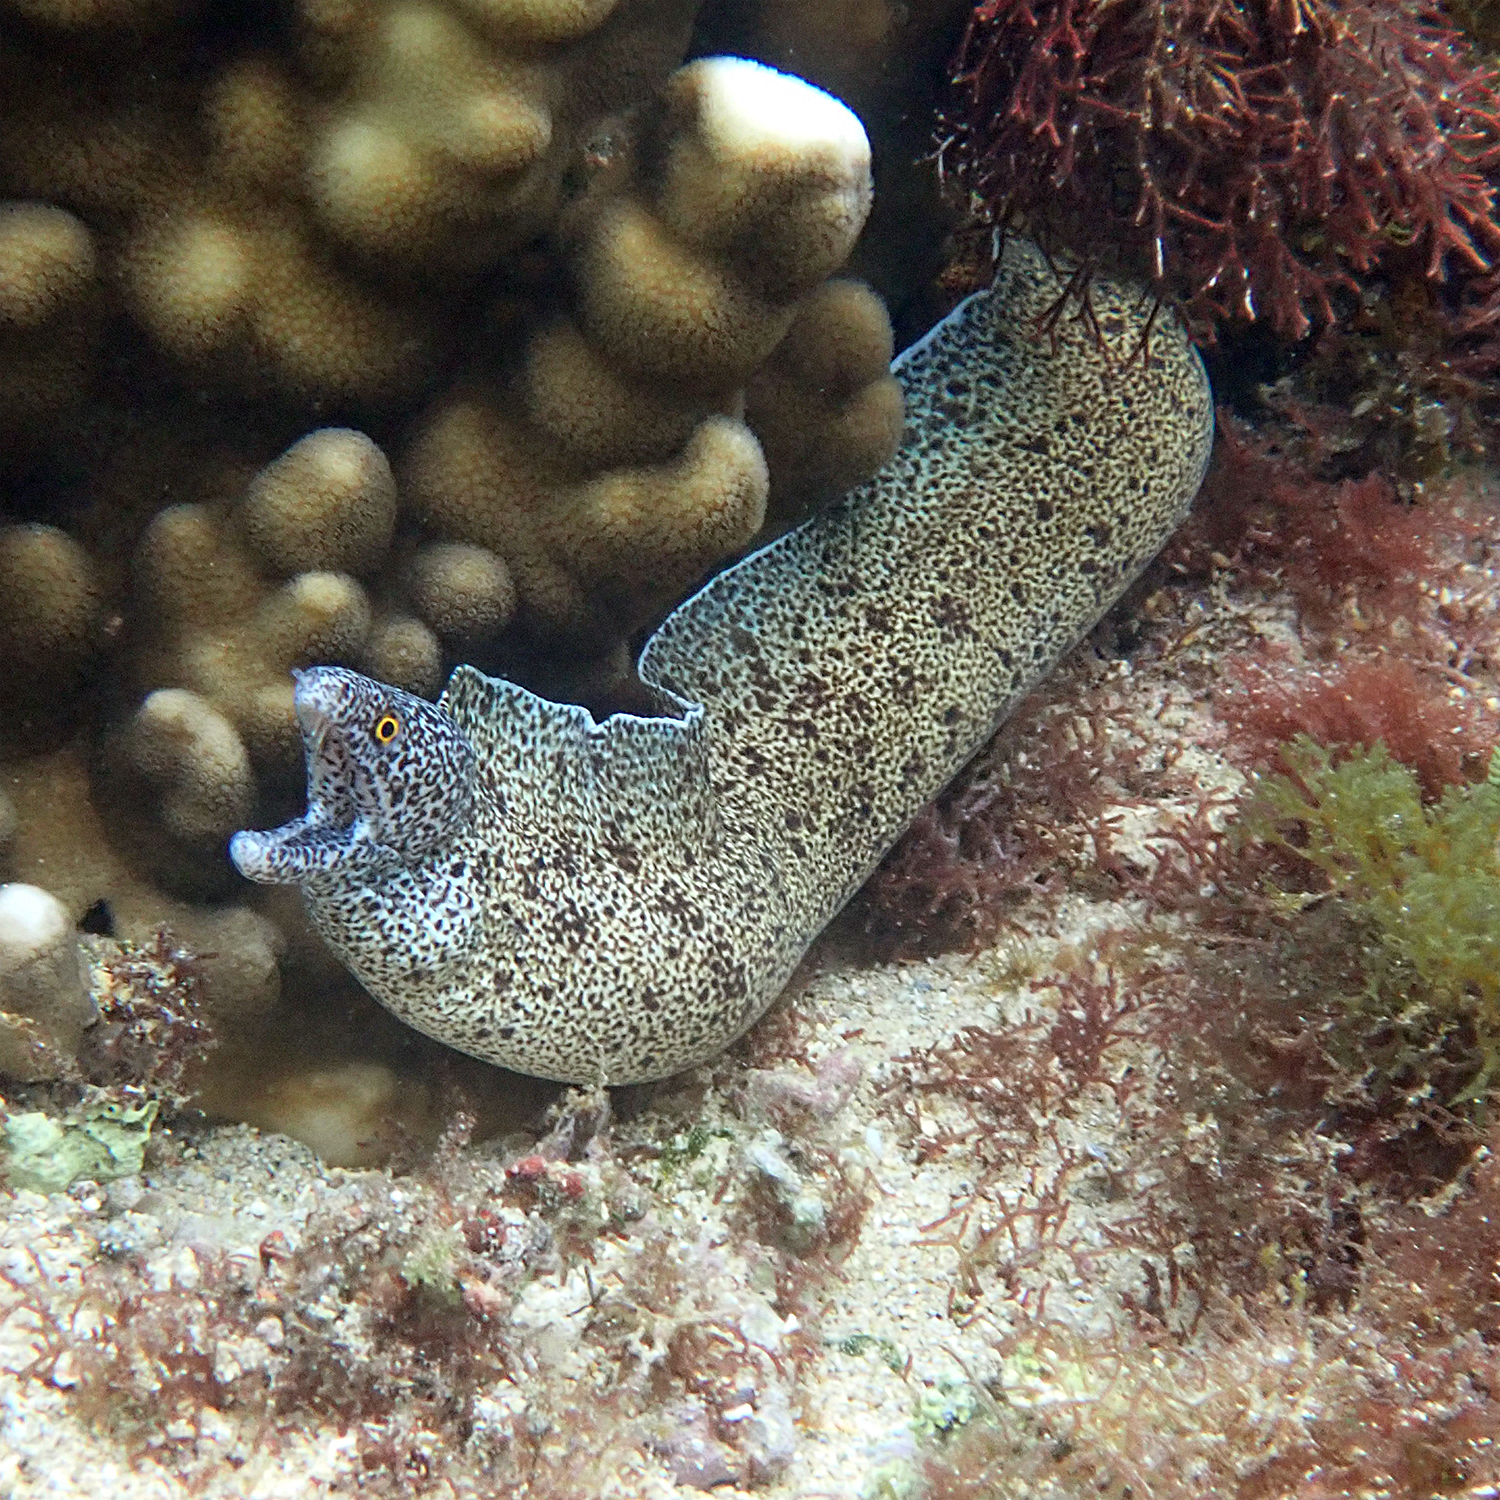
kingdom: Animalia
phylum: Chordata
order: Anguilliformes
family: Muraenidae
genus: Gymnothorax
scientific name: Gymnothorax annasona
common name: Lord howe island moray
